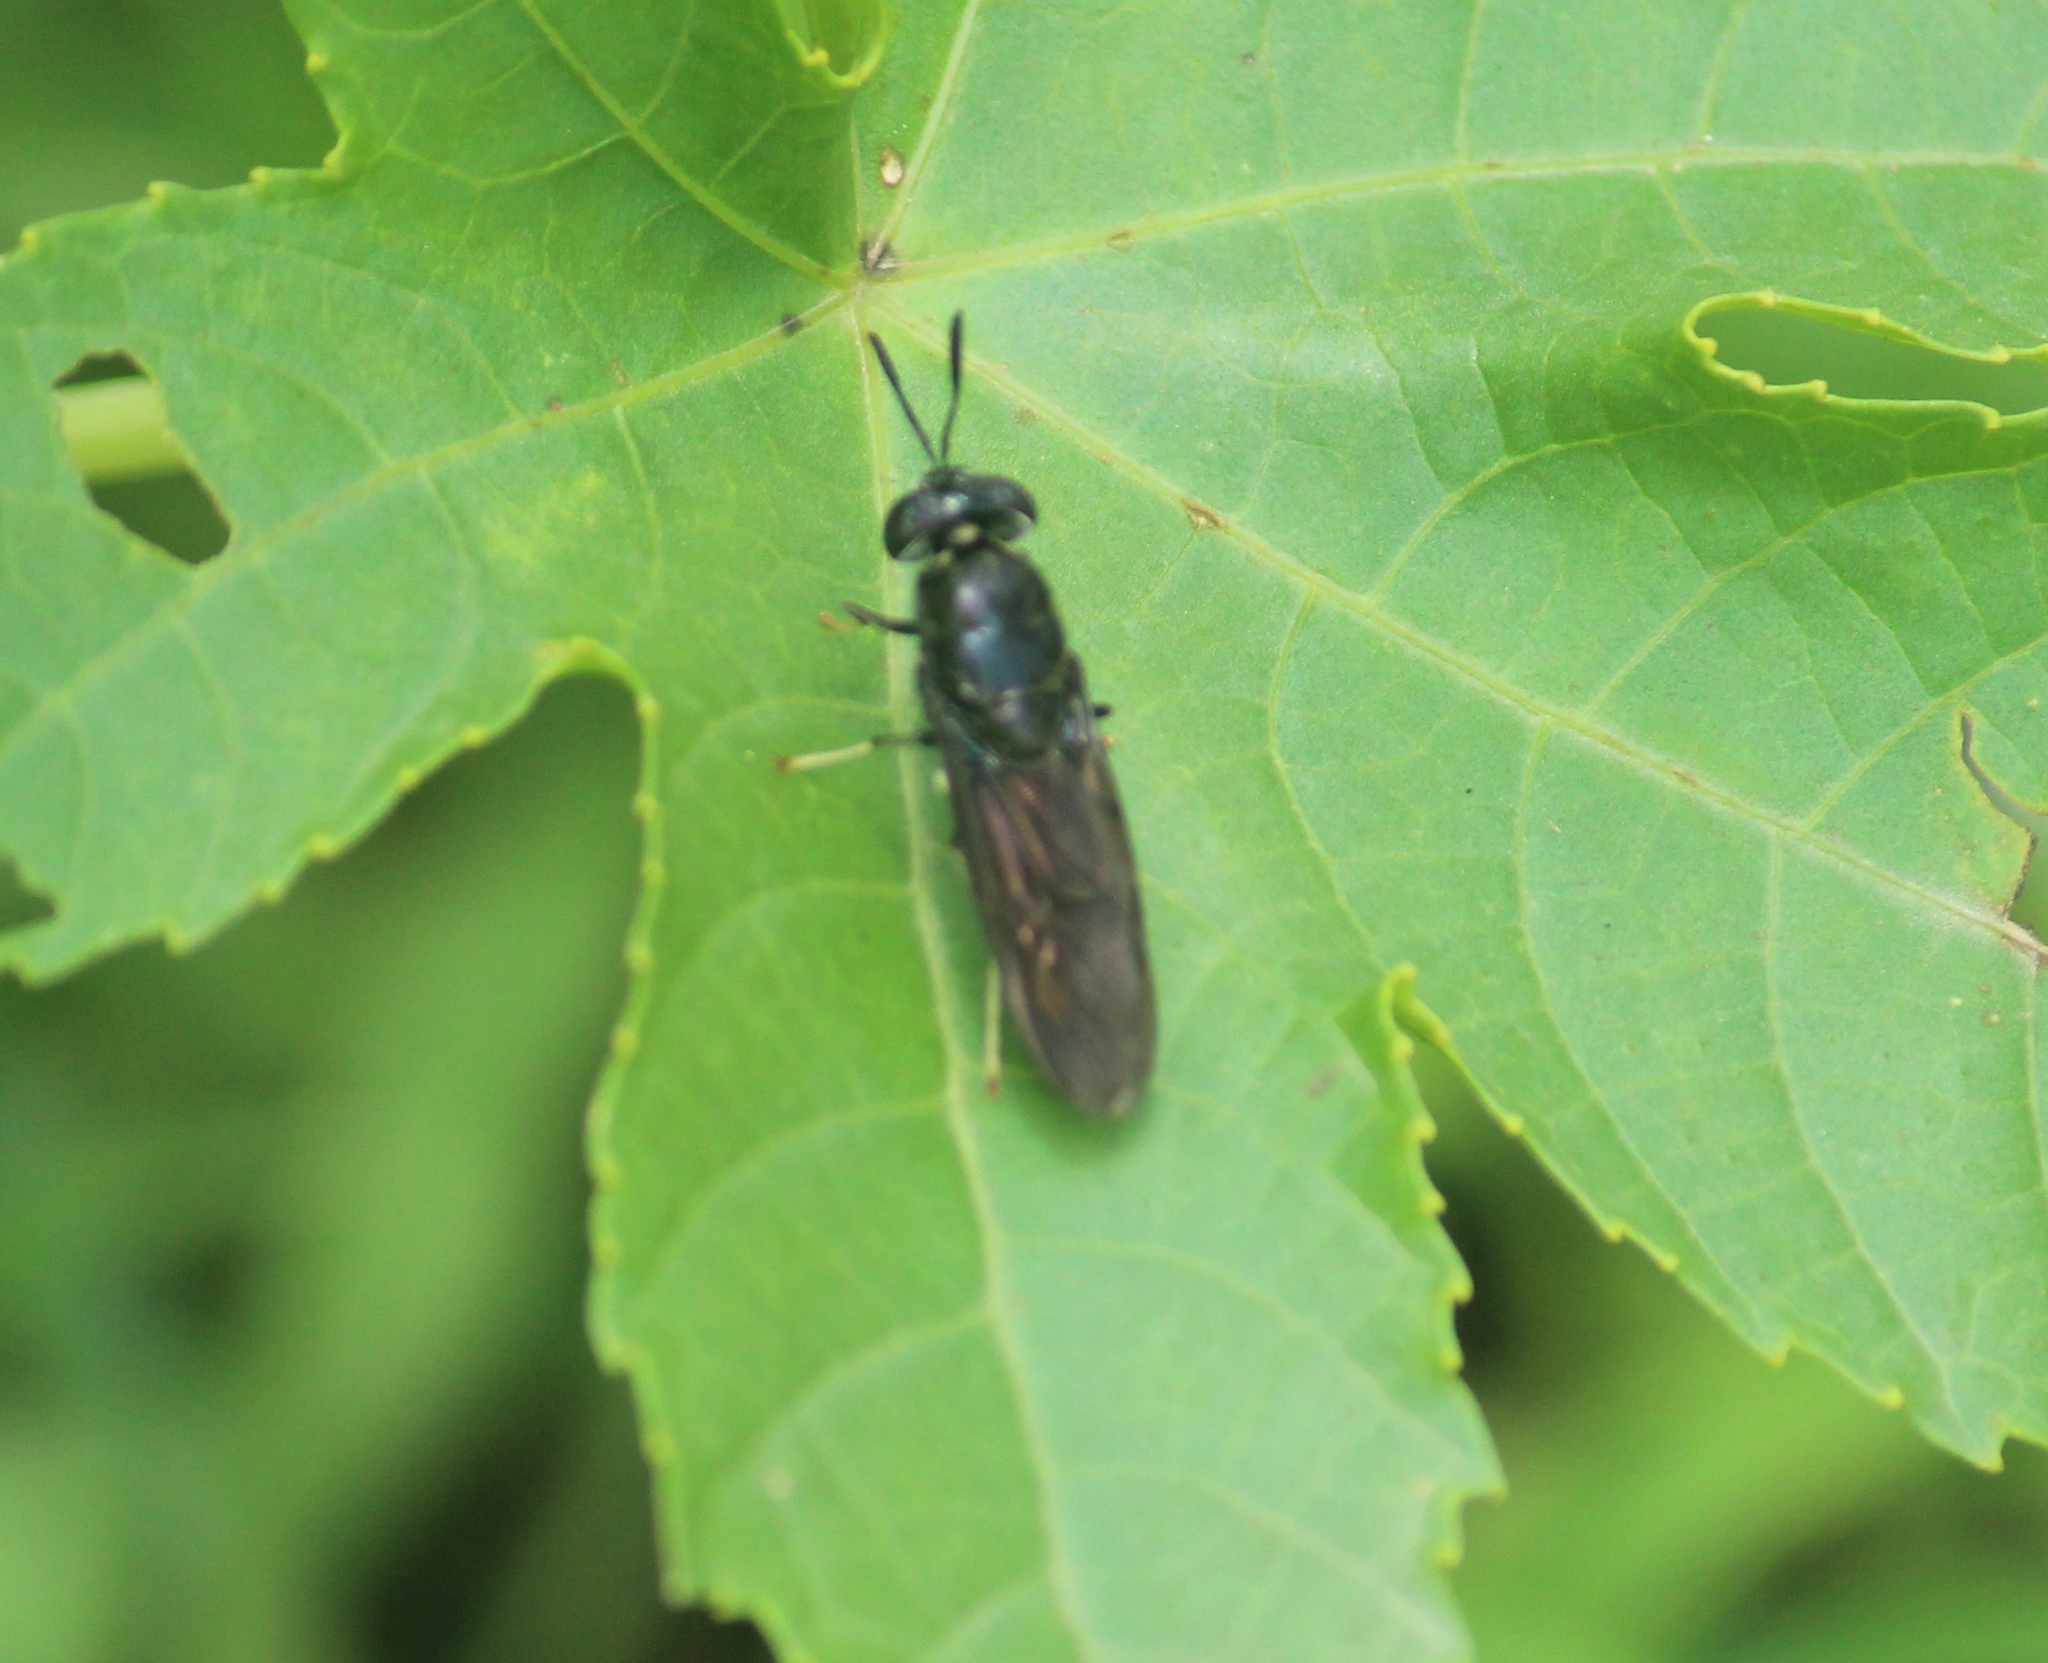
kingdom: Animalia
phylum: Arthropoda
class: Insecta
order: Diptera
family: Stratiomyidae
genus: Hermetia
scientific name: Hermetia illucens
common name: Black soldier fly
